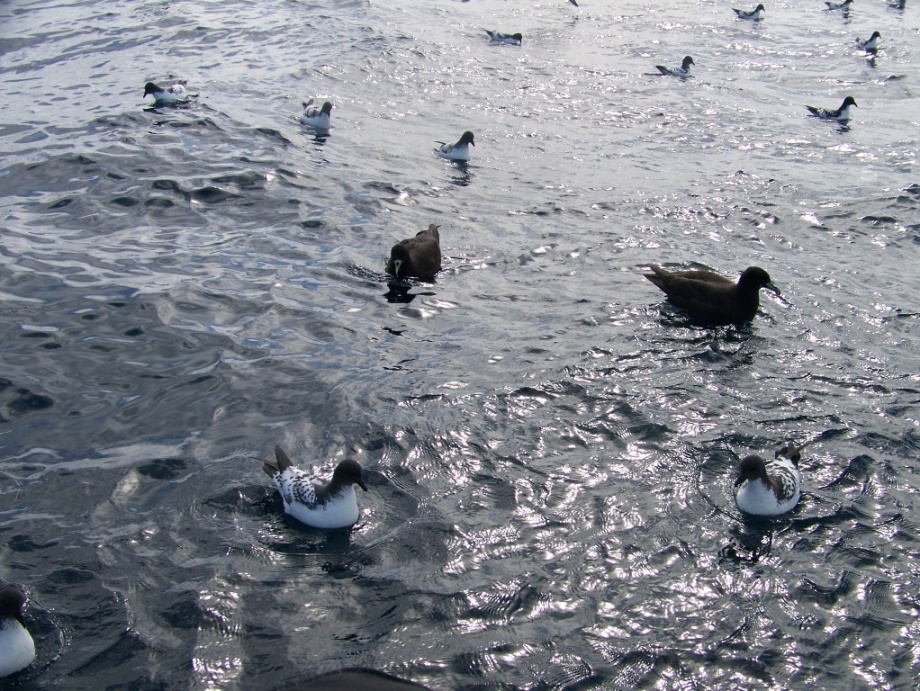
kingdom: Animalia
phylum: Chordata
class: Aves
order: Procellariiformes
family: Procellariidae
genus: Procellaria
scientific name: Procellaria aequinoctialis
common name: White-chinned petrel
